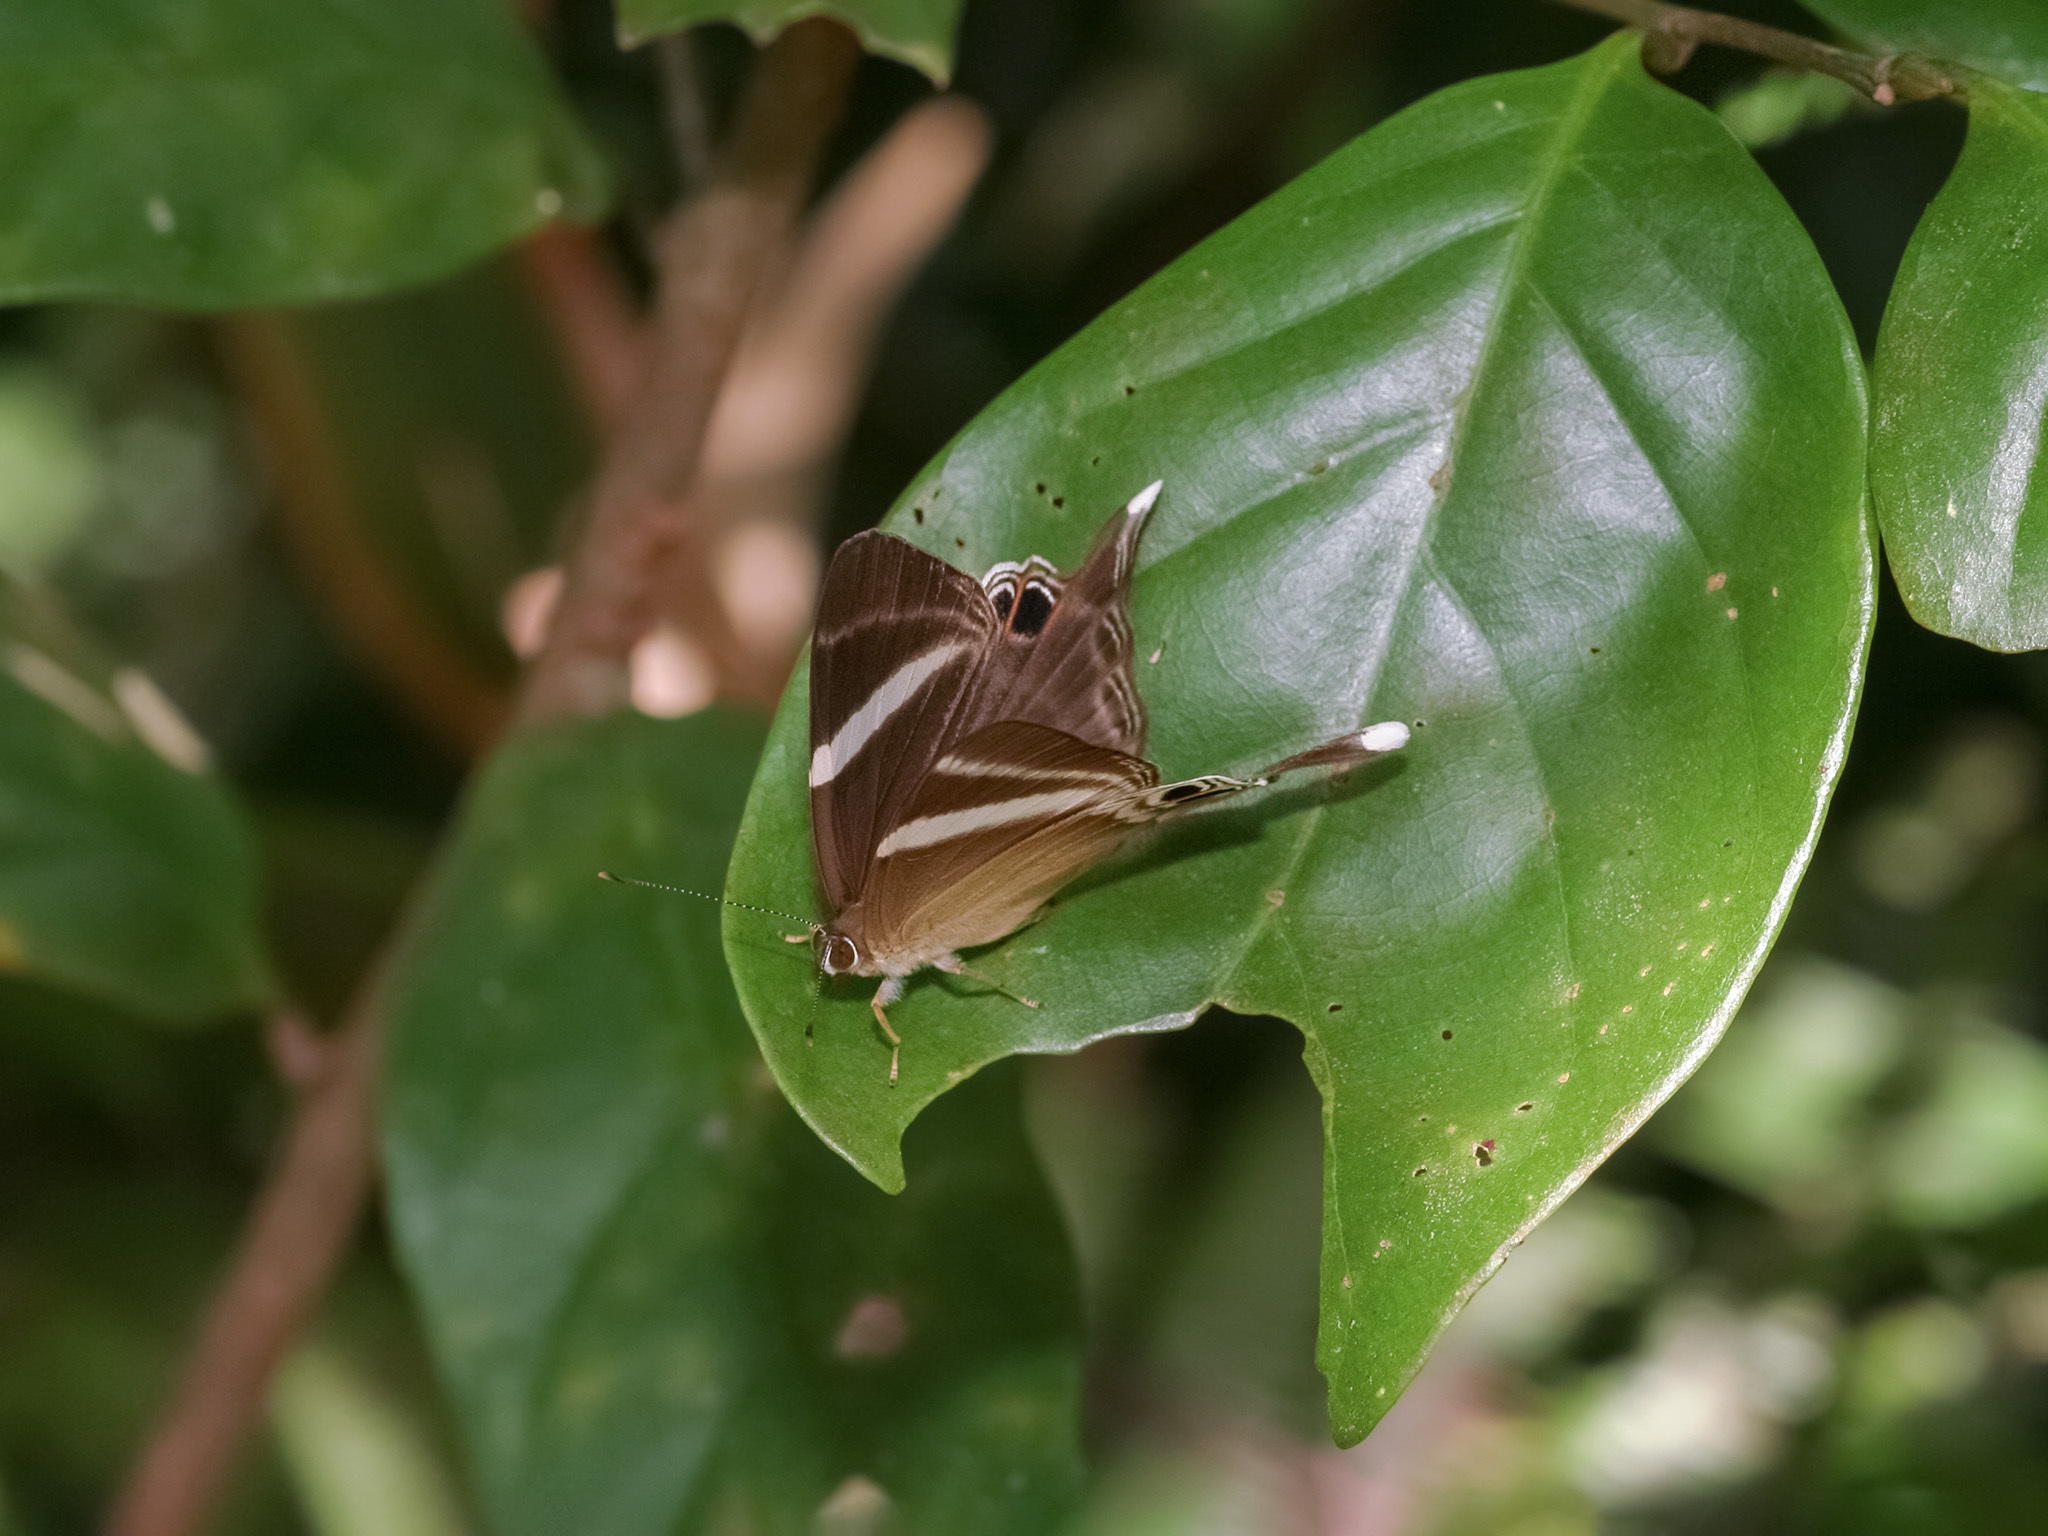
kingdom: Animalia
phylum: Arthropoda
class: Insecta
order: Lepidoptera
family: Lycaenidae
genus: Abisara
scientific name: Abisara neophron
